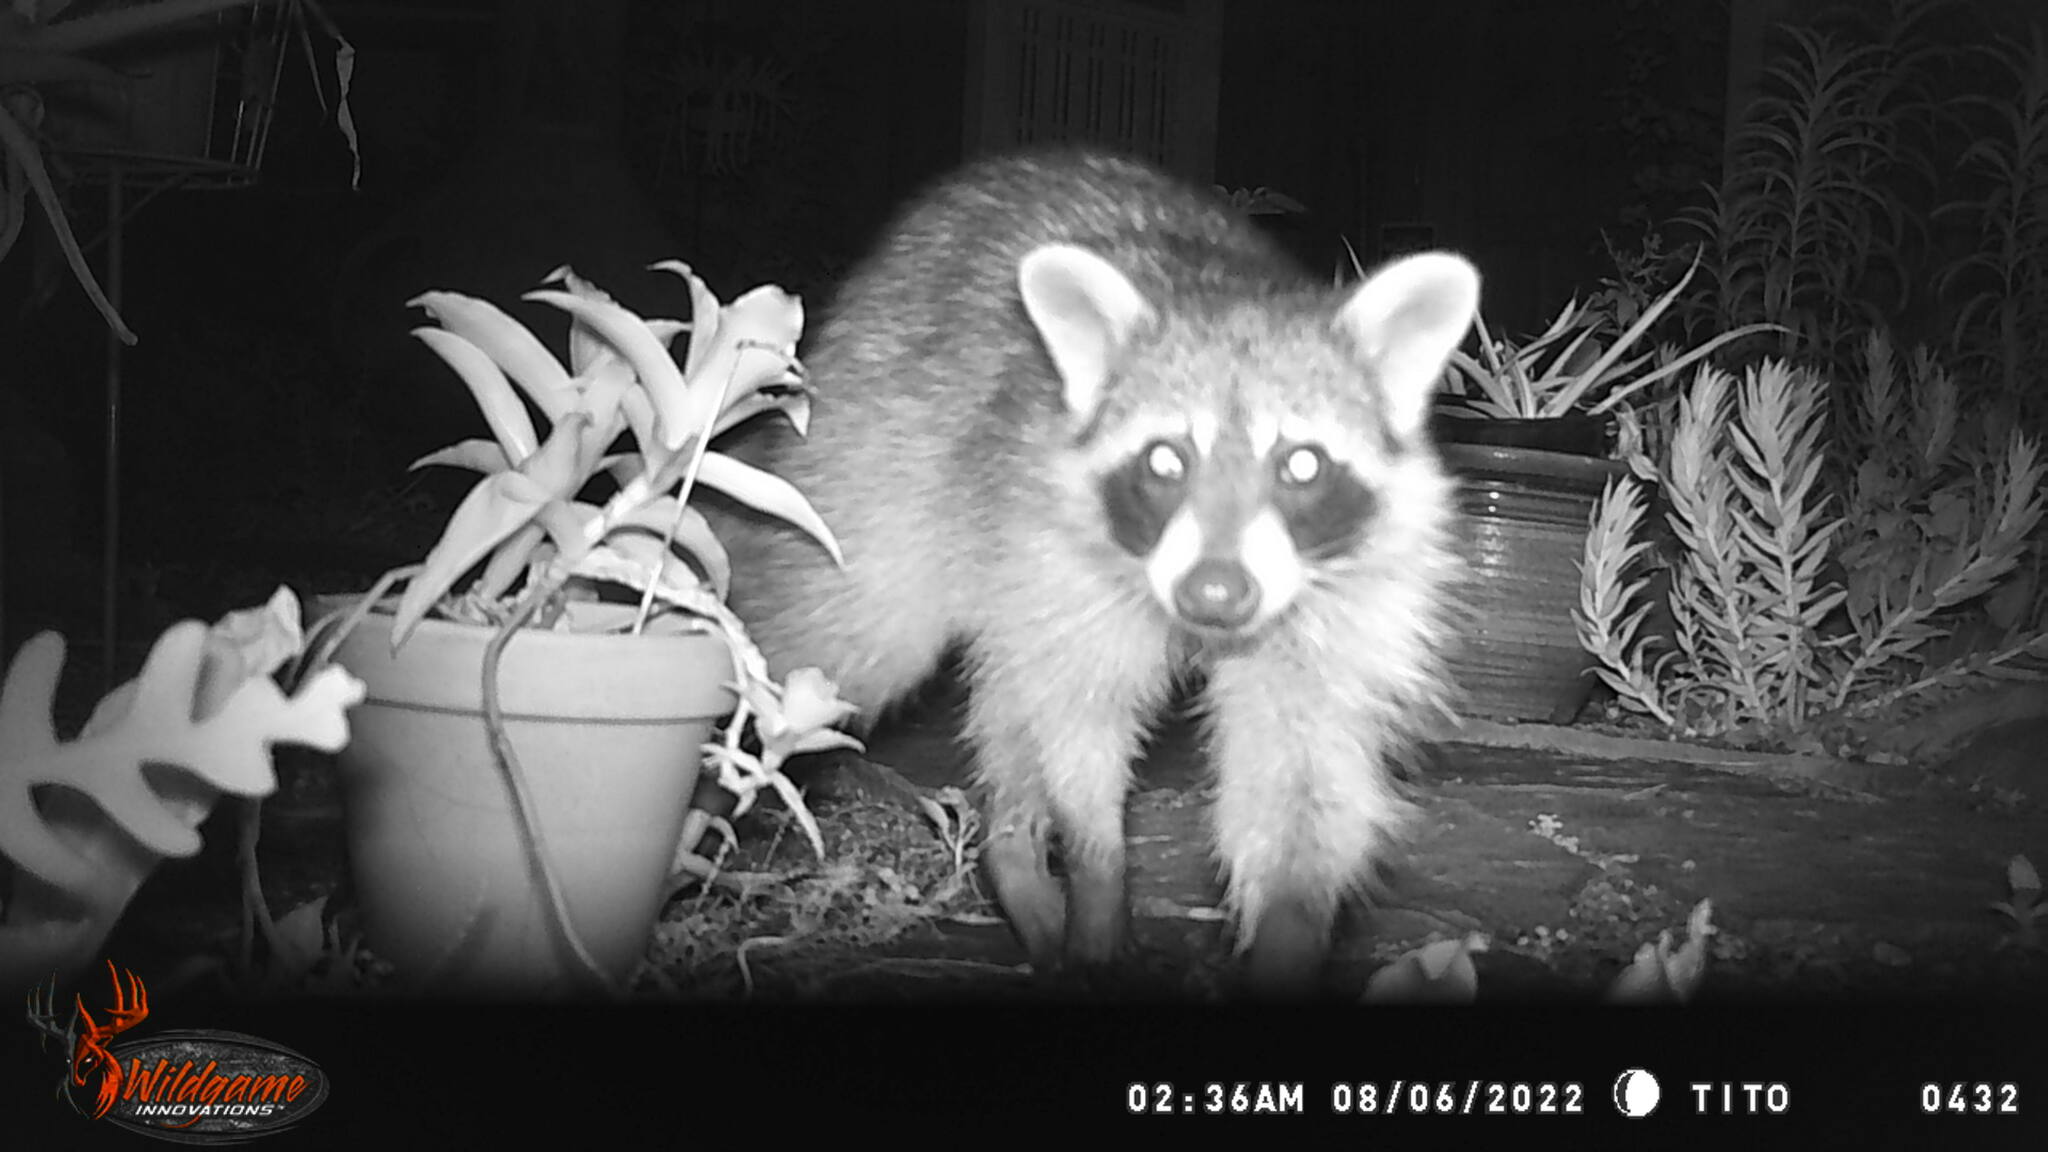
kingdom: Animalia
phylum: Chordata
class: Mammalia
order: Carnivora
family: Procyonidae
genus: Procyon
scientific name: Procyon lotor
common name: Raccoon
